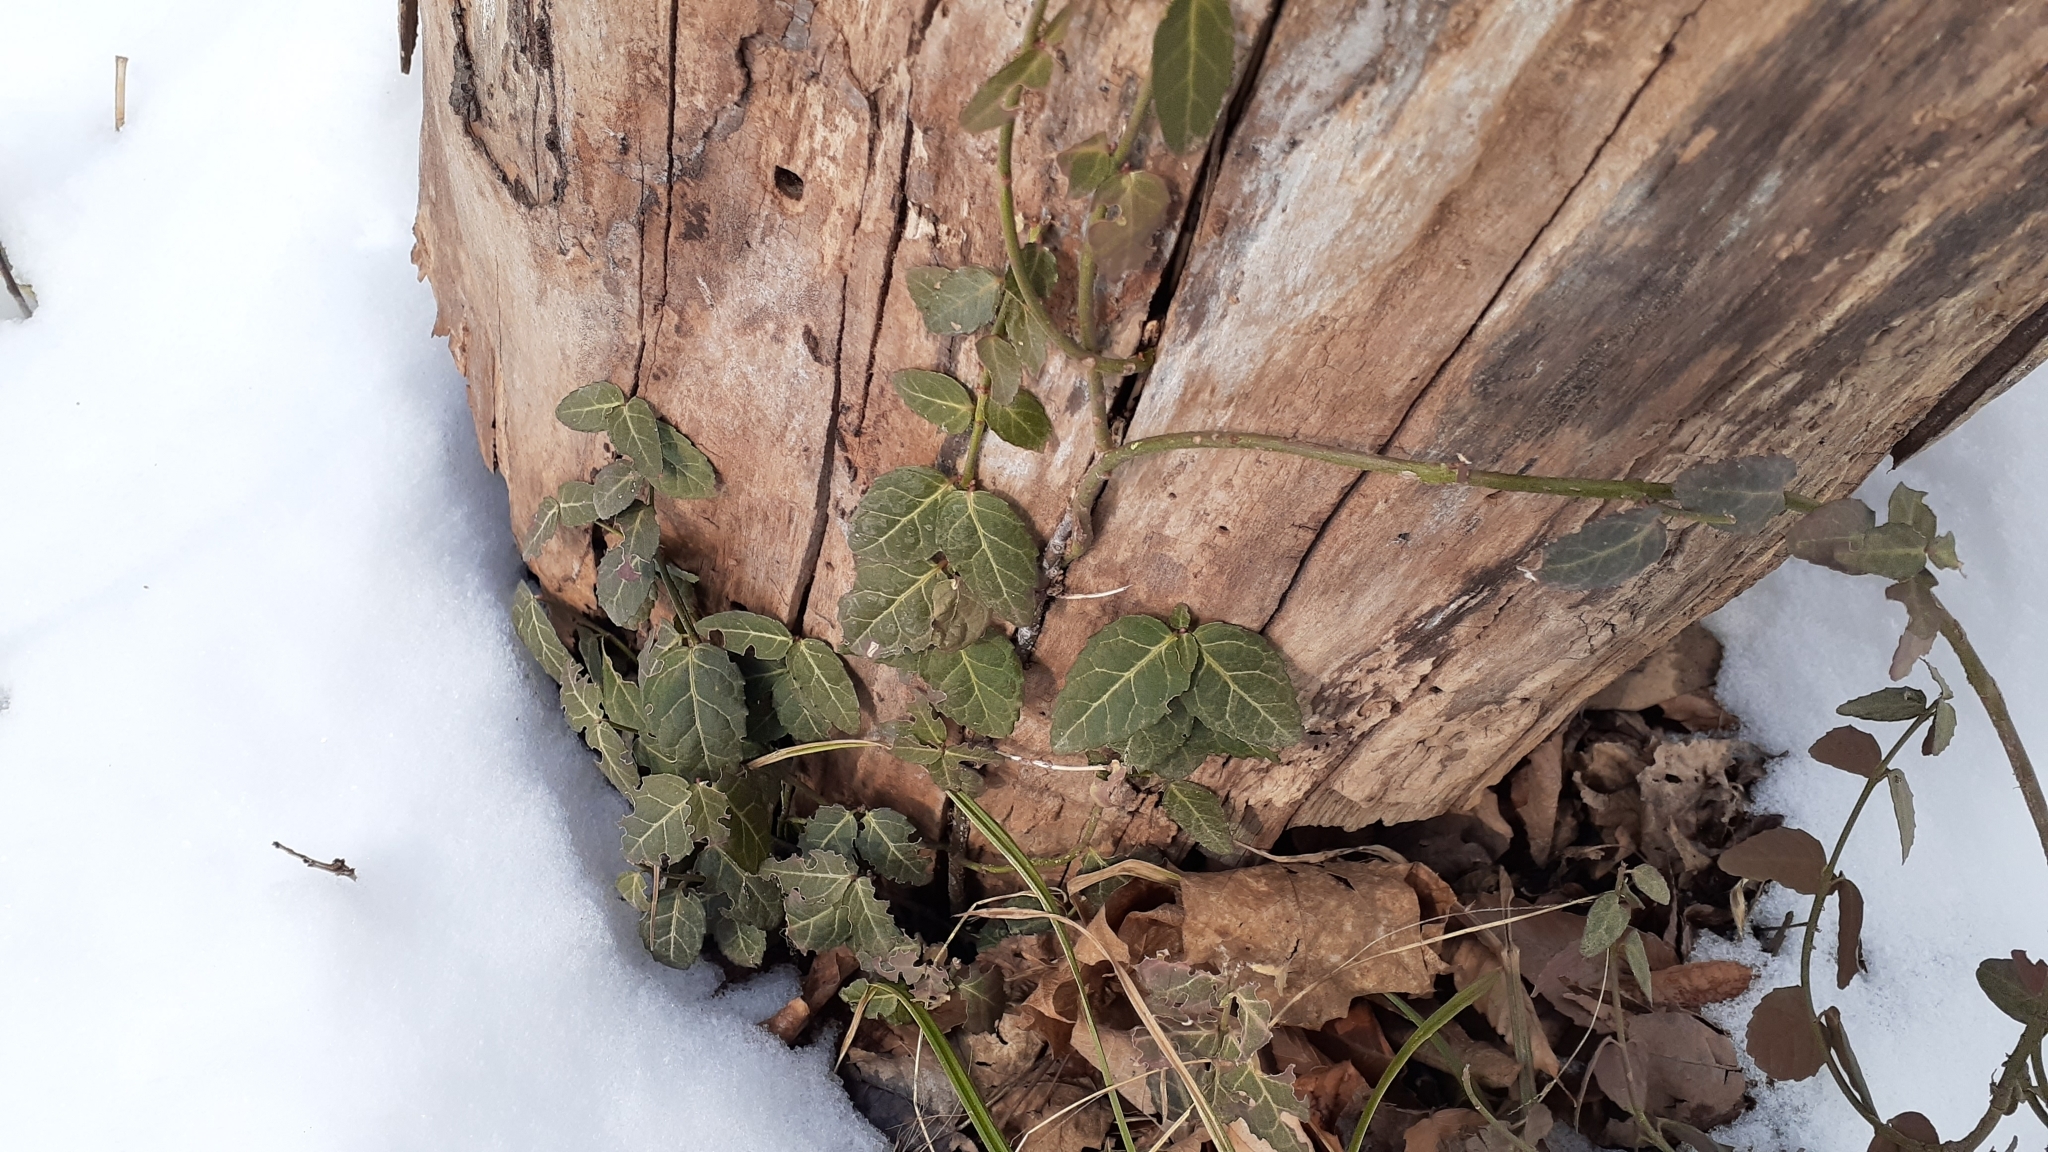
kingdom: Plantae
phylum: Tracheophyta
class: Magnoliopsida
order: Celastrales
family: Celastraceae
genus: Euonymus
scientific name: Euonymus fortunei
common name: Climbing euonymus
